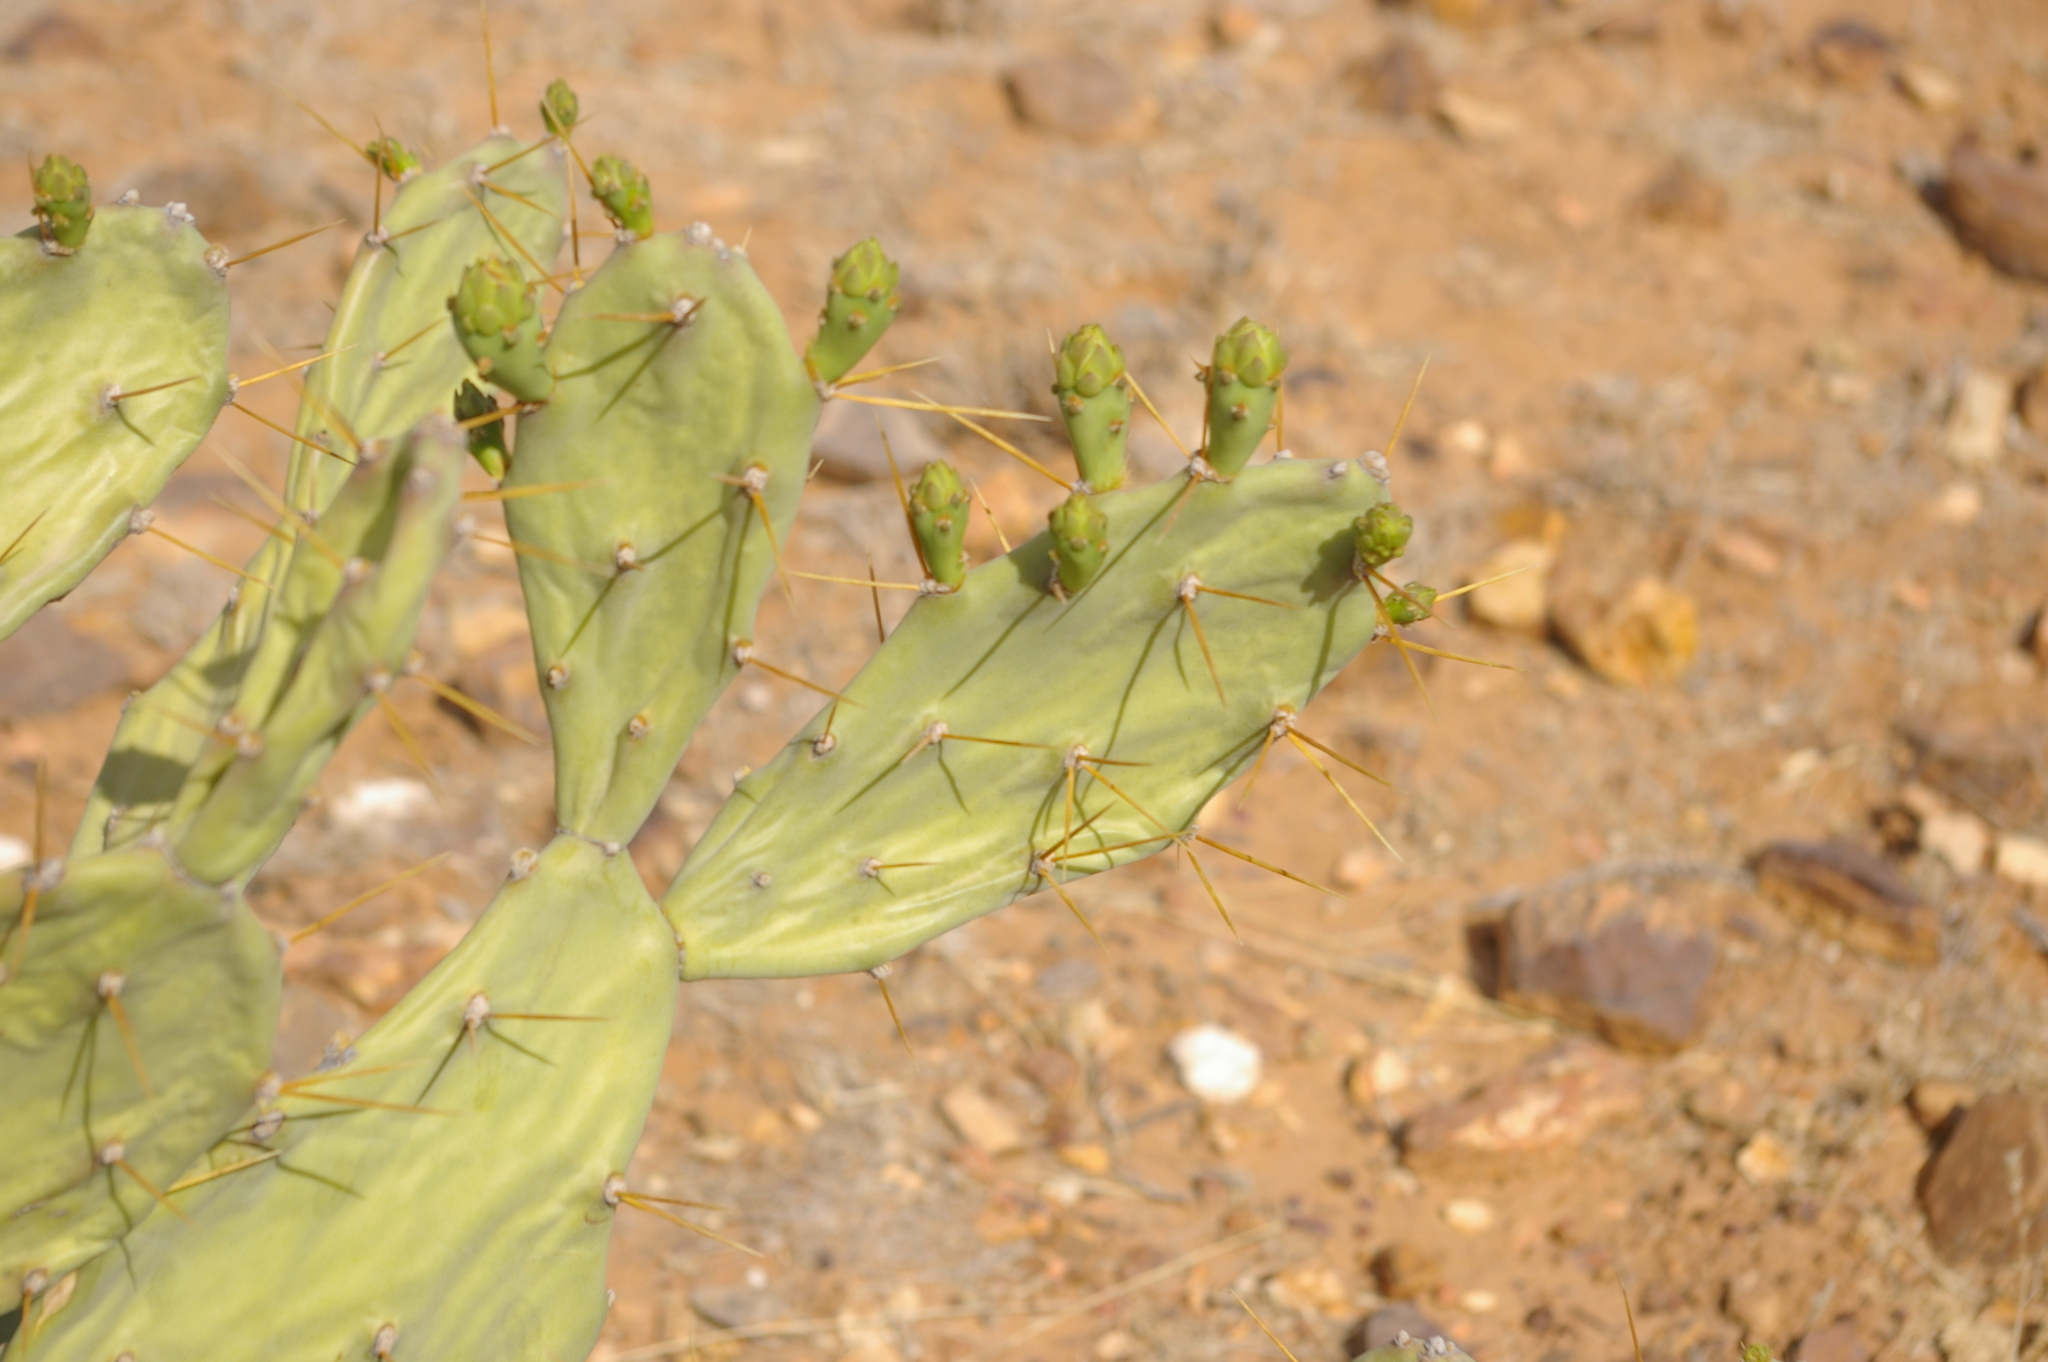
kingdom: Plantae
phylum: Tracheophyta
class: Magnoliopsida
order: Caryophyllales
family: Cactaceae
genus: Opuntia
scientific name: Opuntia stricta
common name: Erect pricklypear
